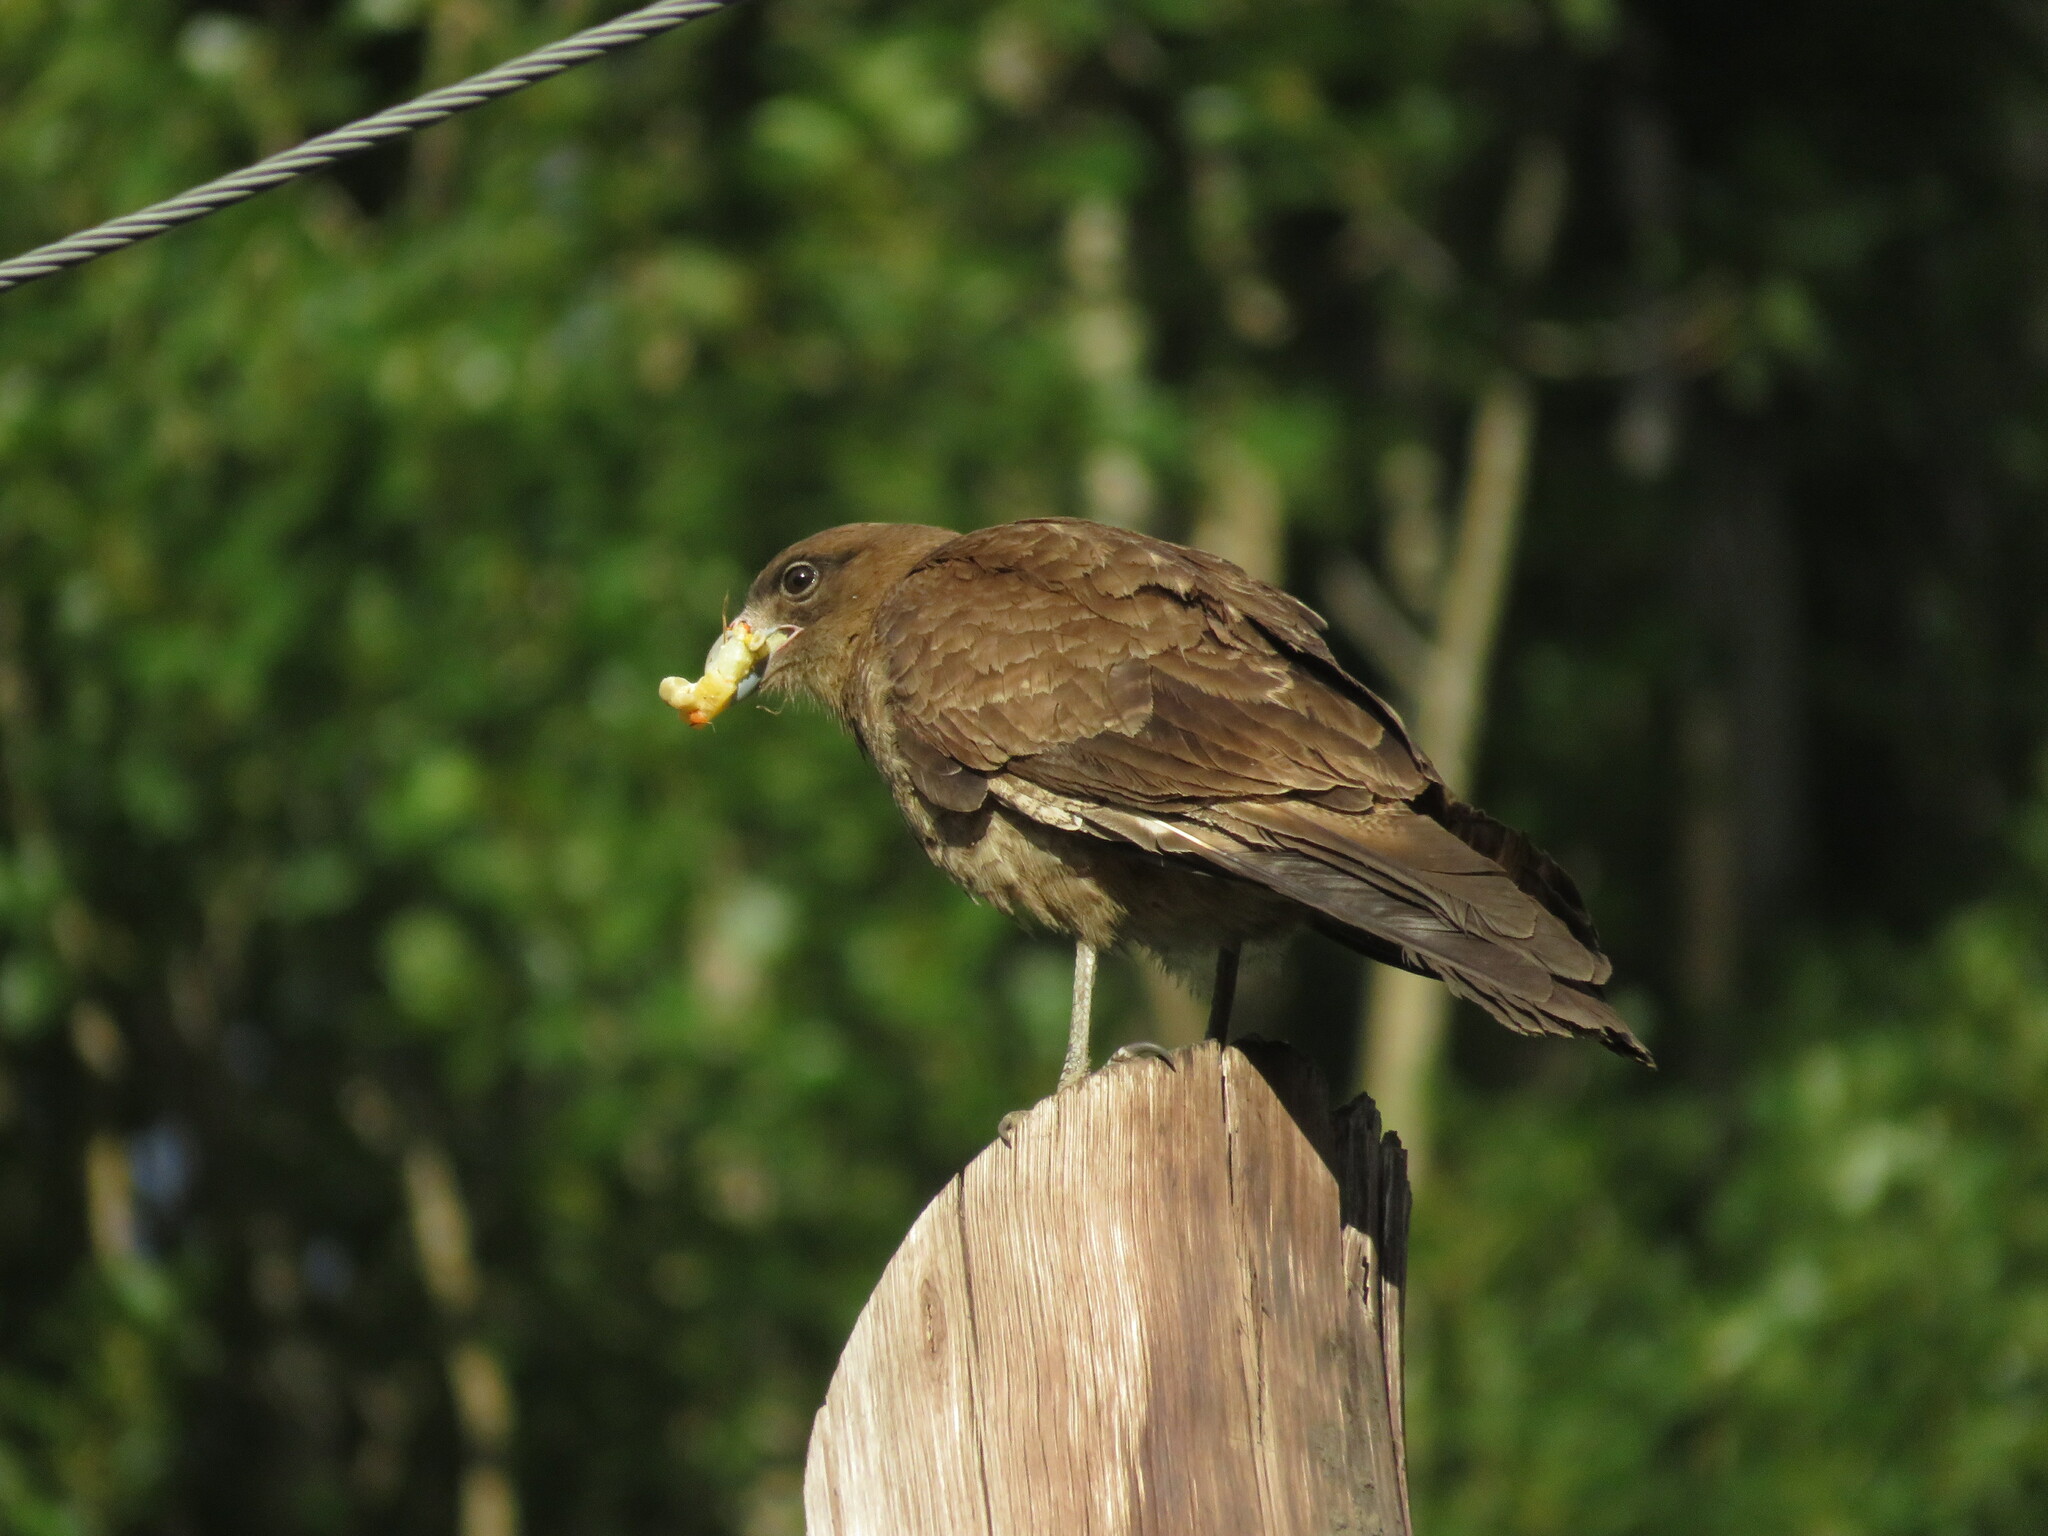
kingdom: Animalia
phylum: Chordata
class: Aves
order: Falconiformes
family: Falconidae
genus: Daptrius
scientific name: Daptrius
